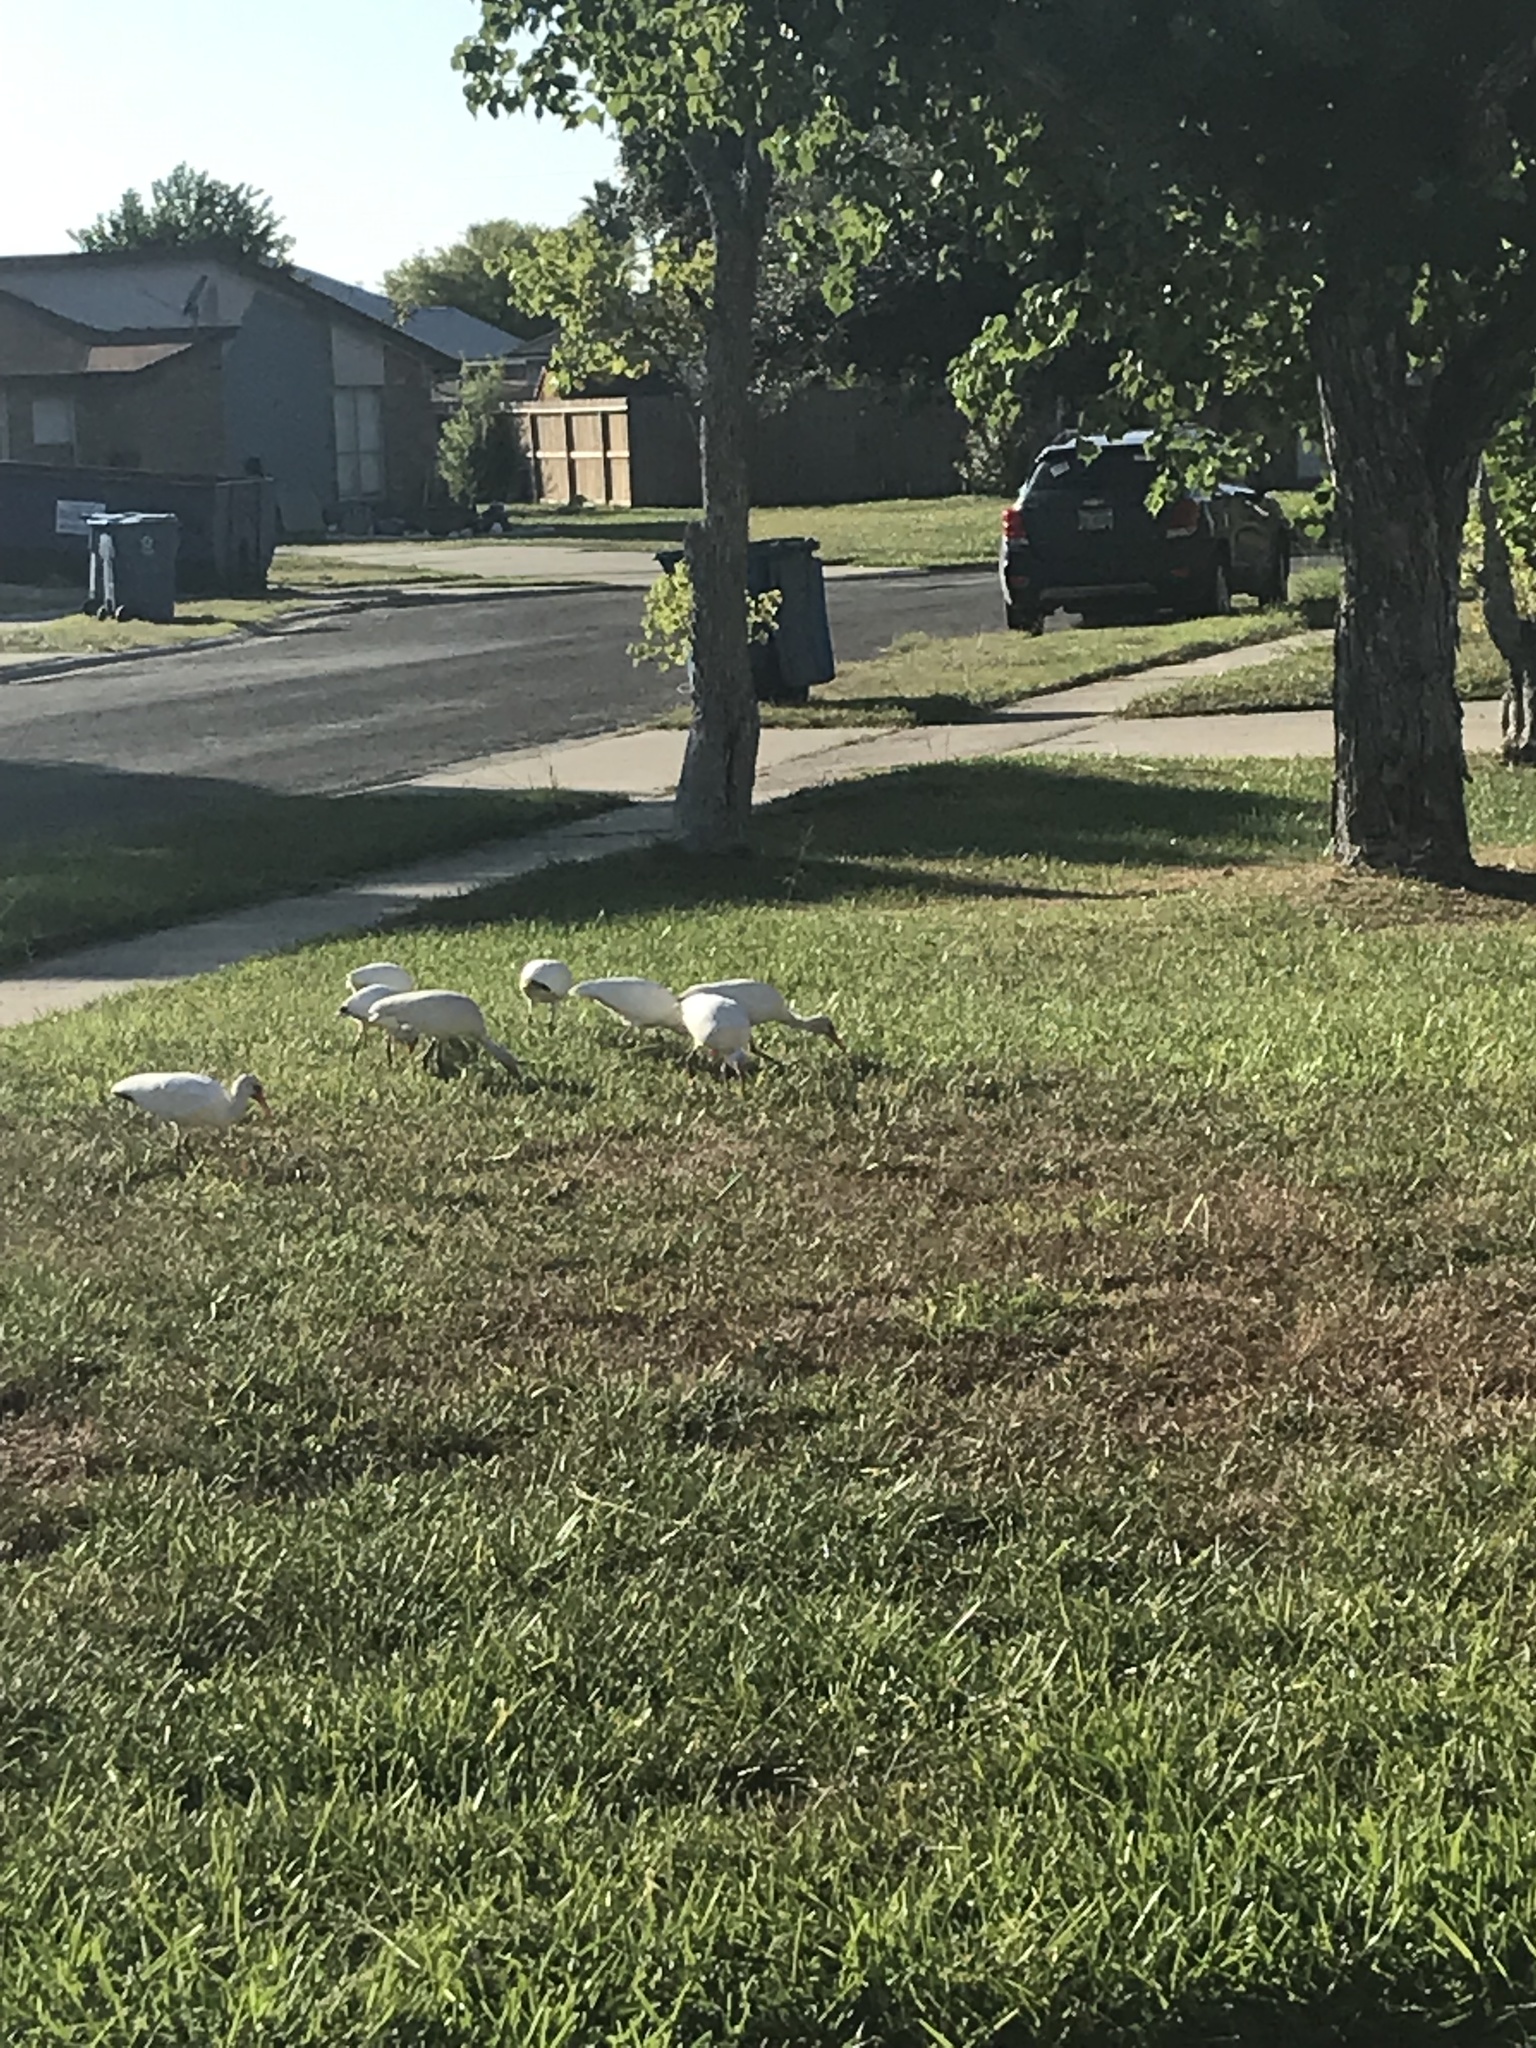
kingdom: Animalia
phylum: Chordata
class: Aves
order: Pelecaniformes
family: Threskiornithidae
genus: Eudocimus
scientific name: Eudocimus albus
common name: White ibis
